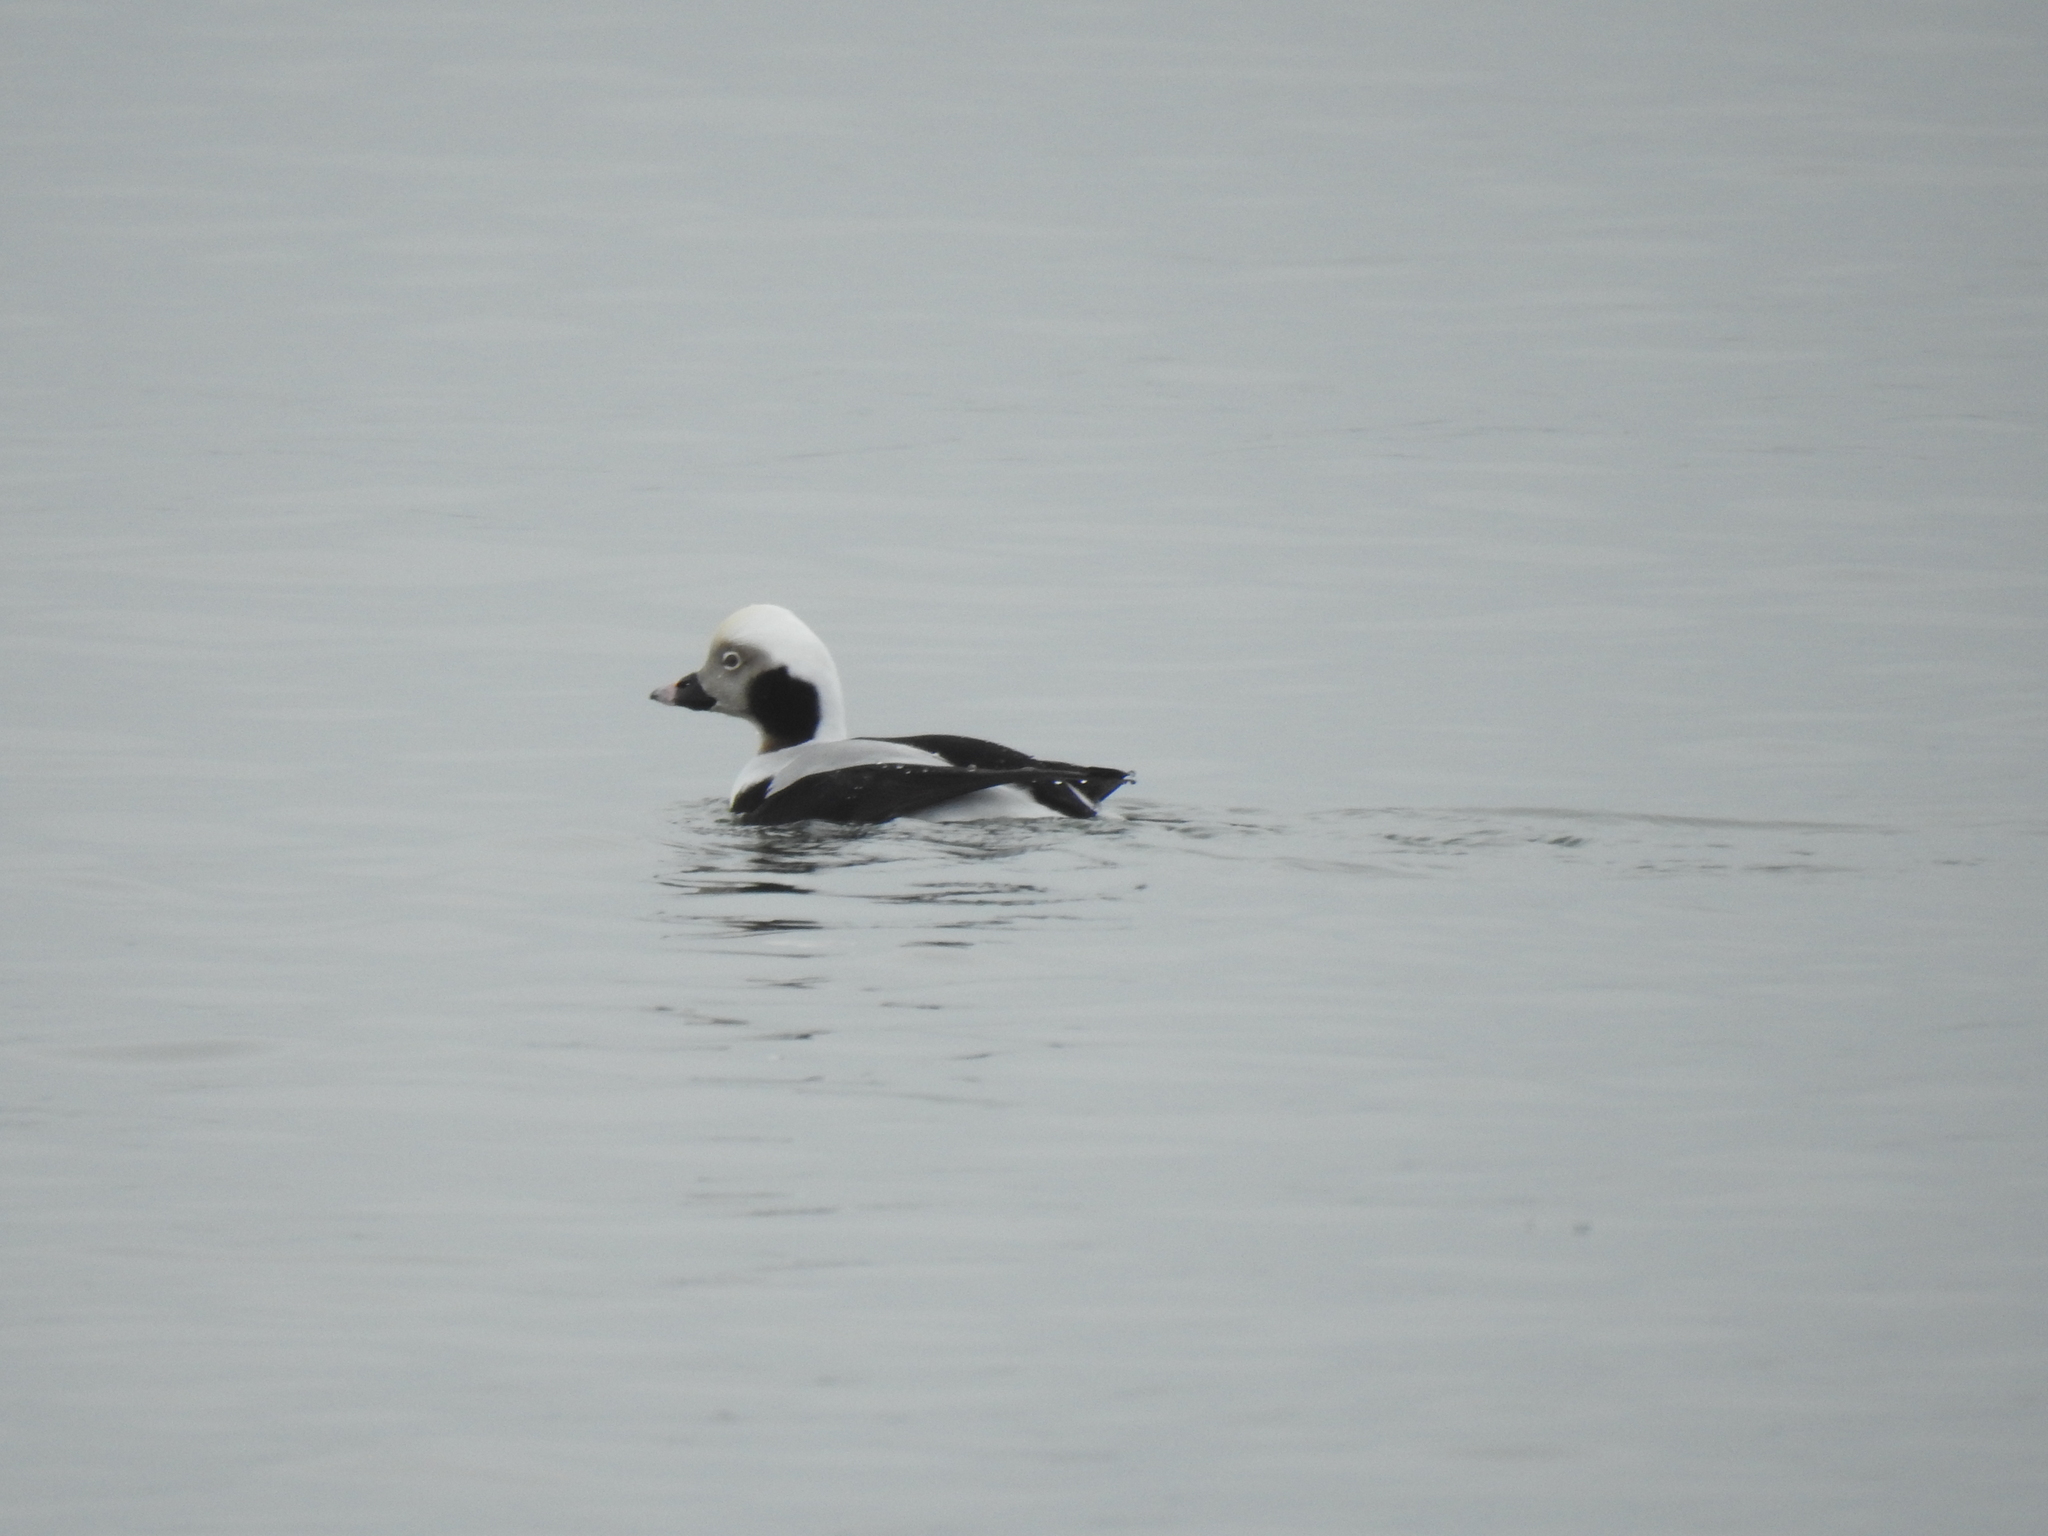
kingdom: Animalia
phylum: Chordata
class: Aves
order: Anseriformes
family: Anatidae
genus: Clangula
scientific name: Clangula hyemalis
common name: Long-tailed duck
